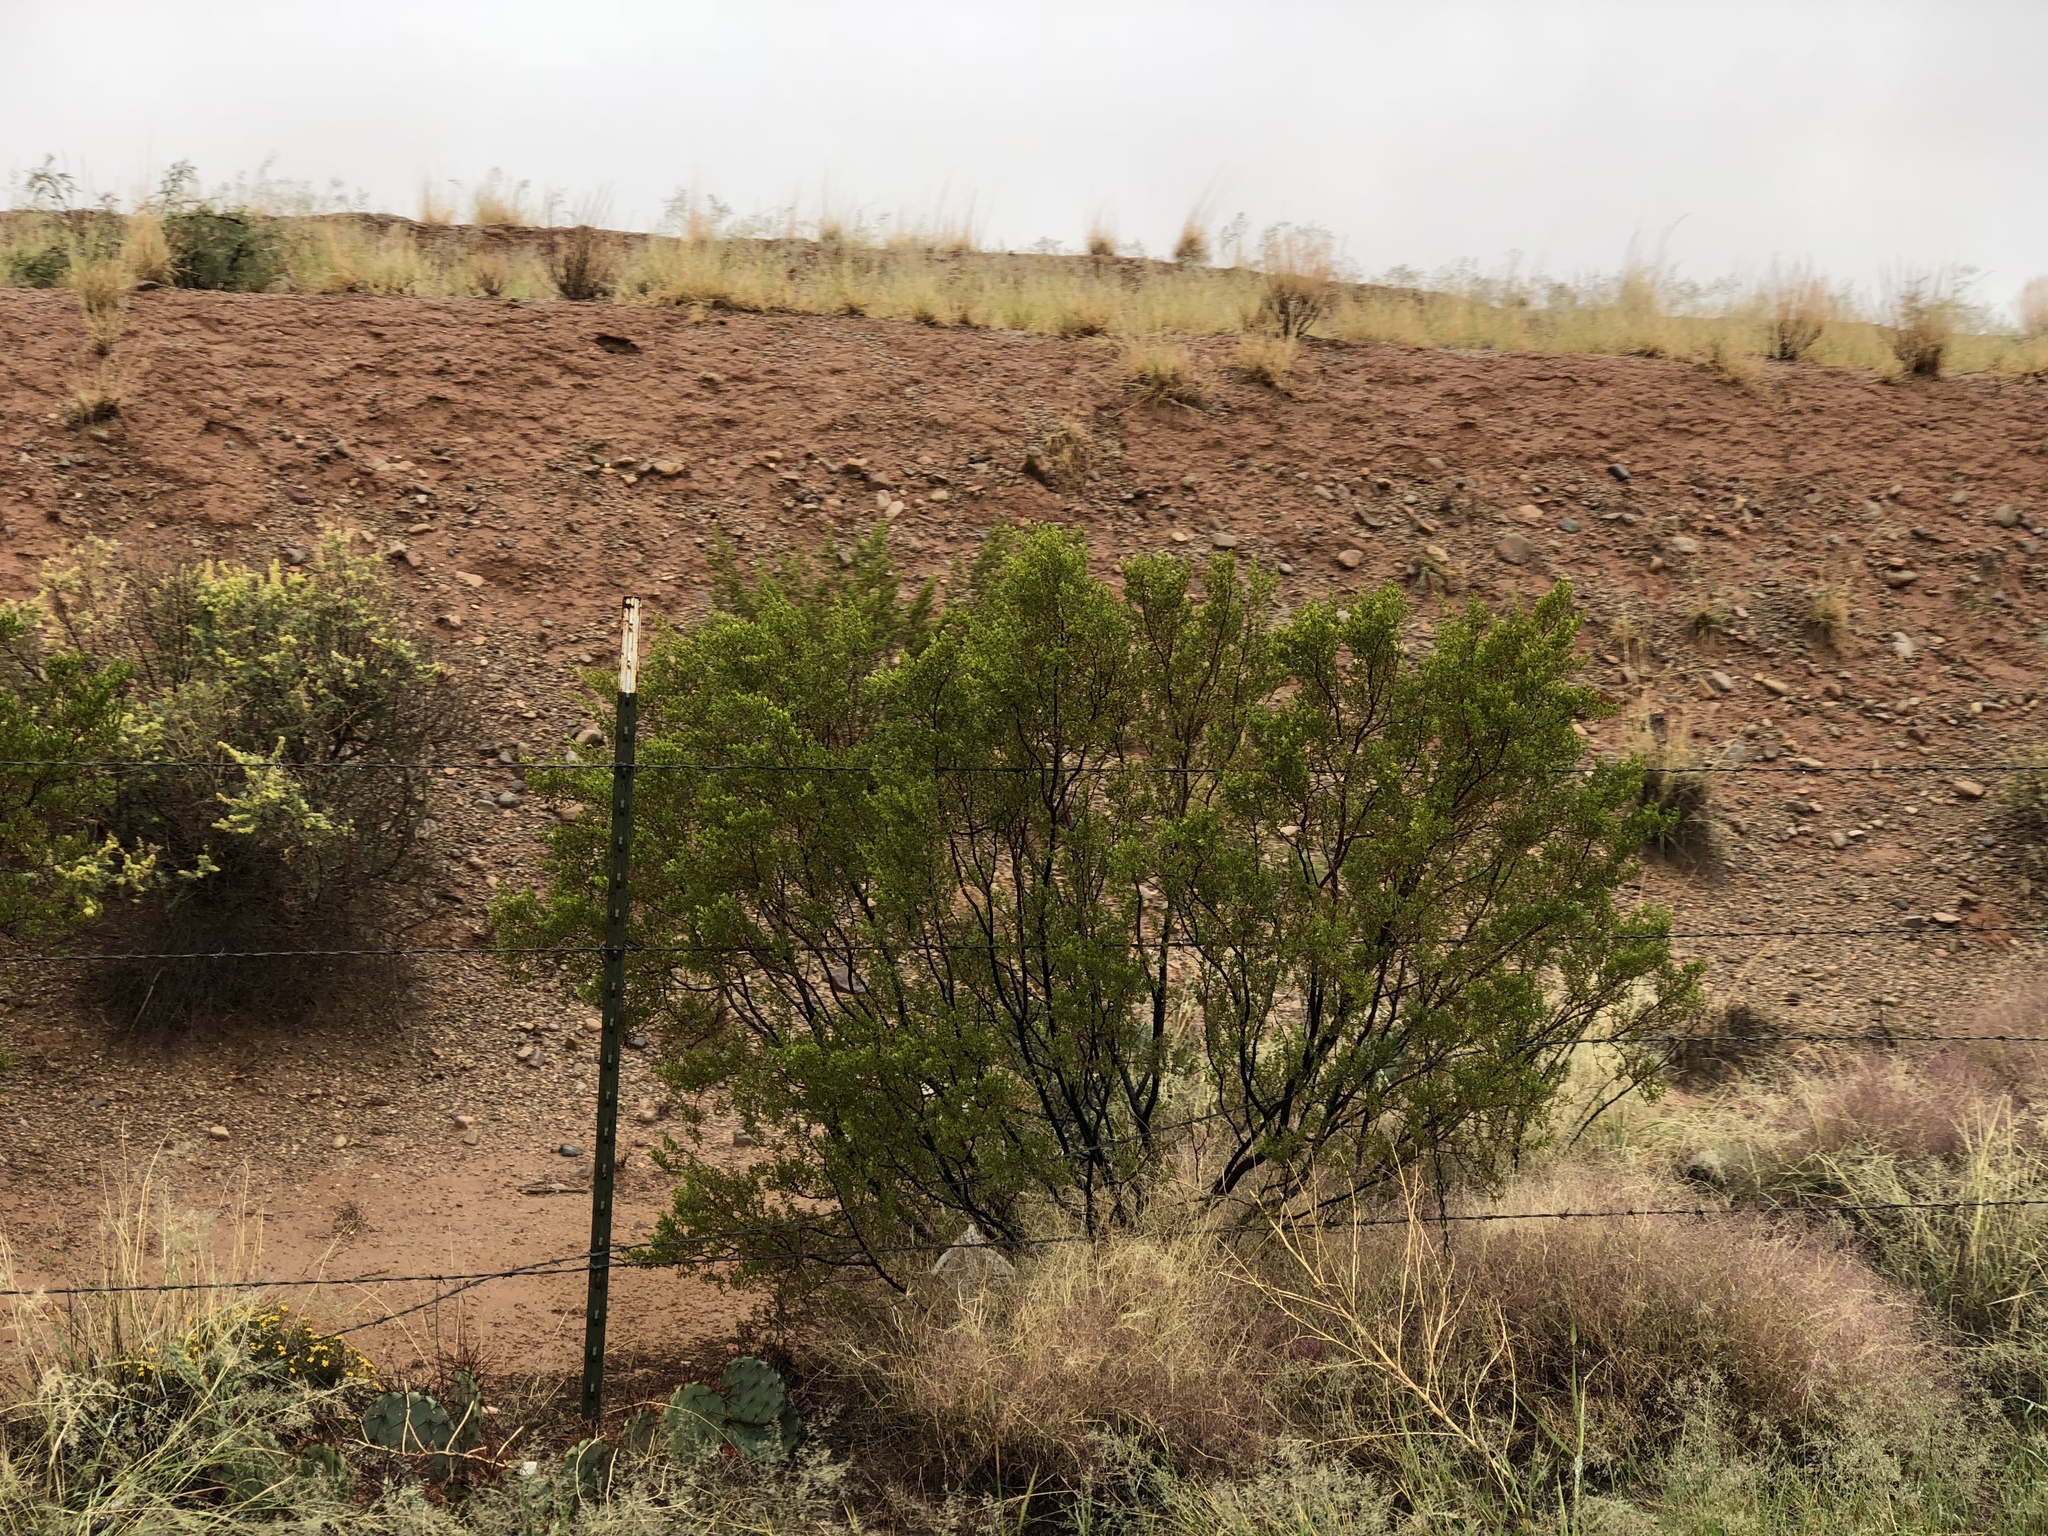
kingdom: Plantae
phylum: Tracheophyta
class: Magnoliopsida
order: Zygophyllales
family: Zygophyllaceae
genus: Larrea
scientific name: Larrea tridentata
